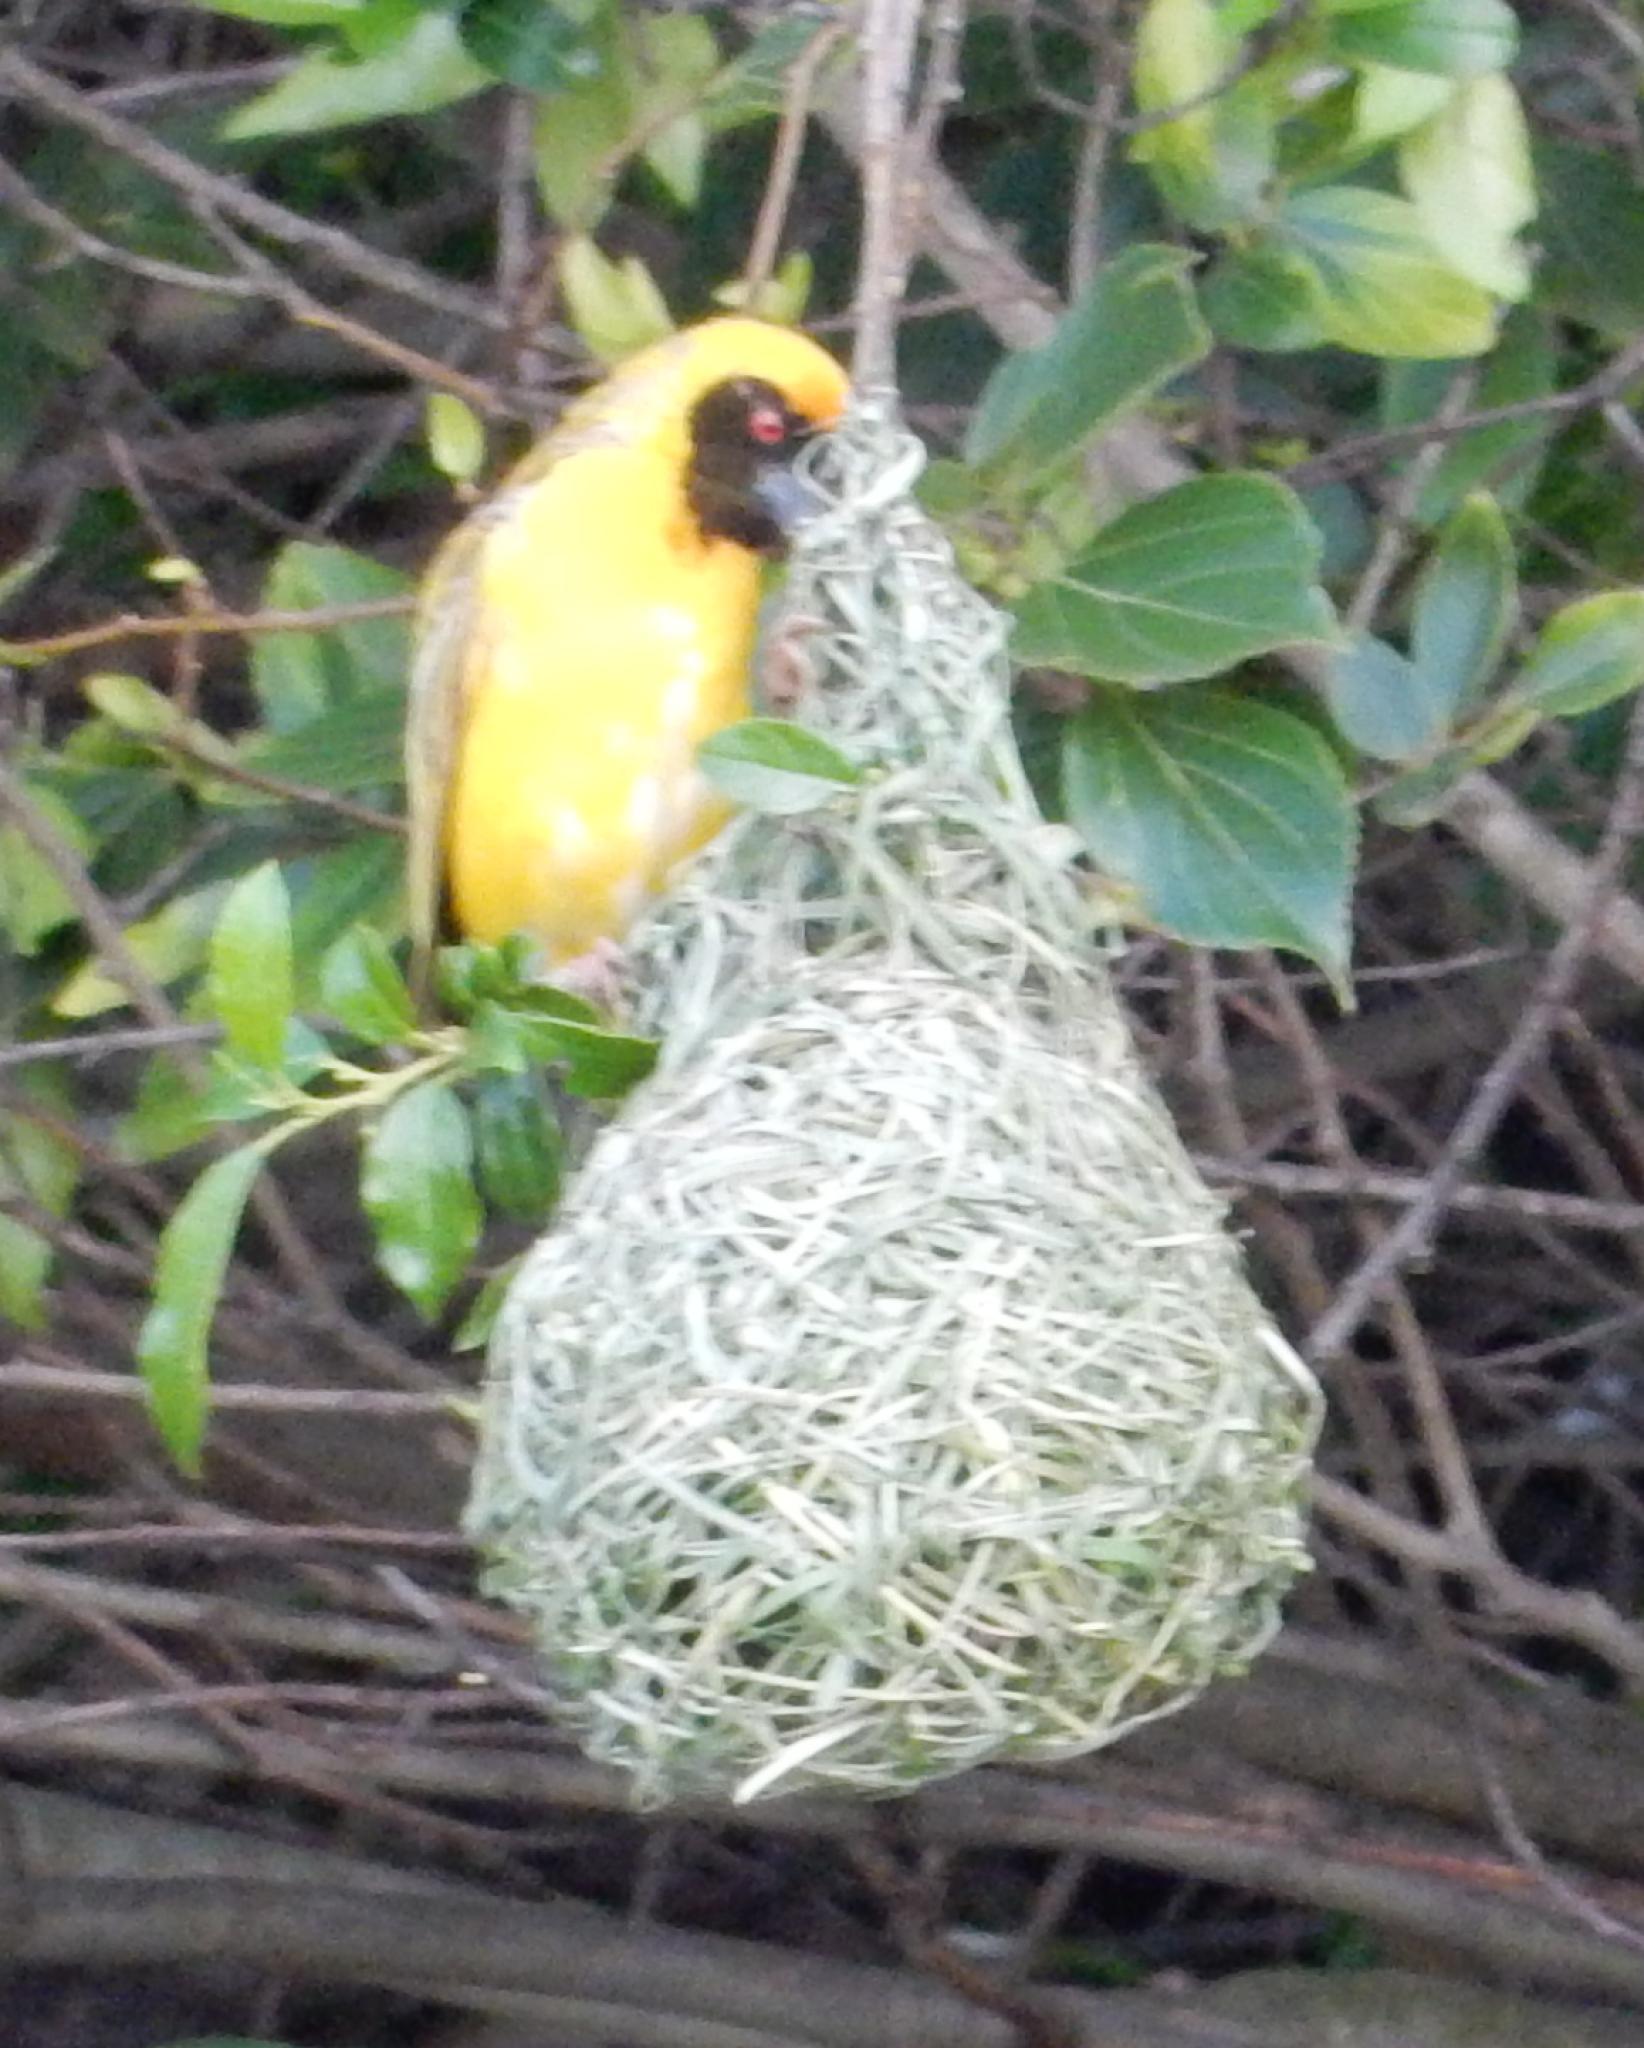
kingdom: Animalia
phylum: Chordata
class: Aves
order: Passeriformes
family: Ploceidae
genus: Ploceus
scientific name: Ploceus velatus
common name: Southern masked weaver
